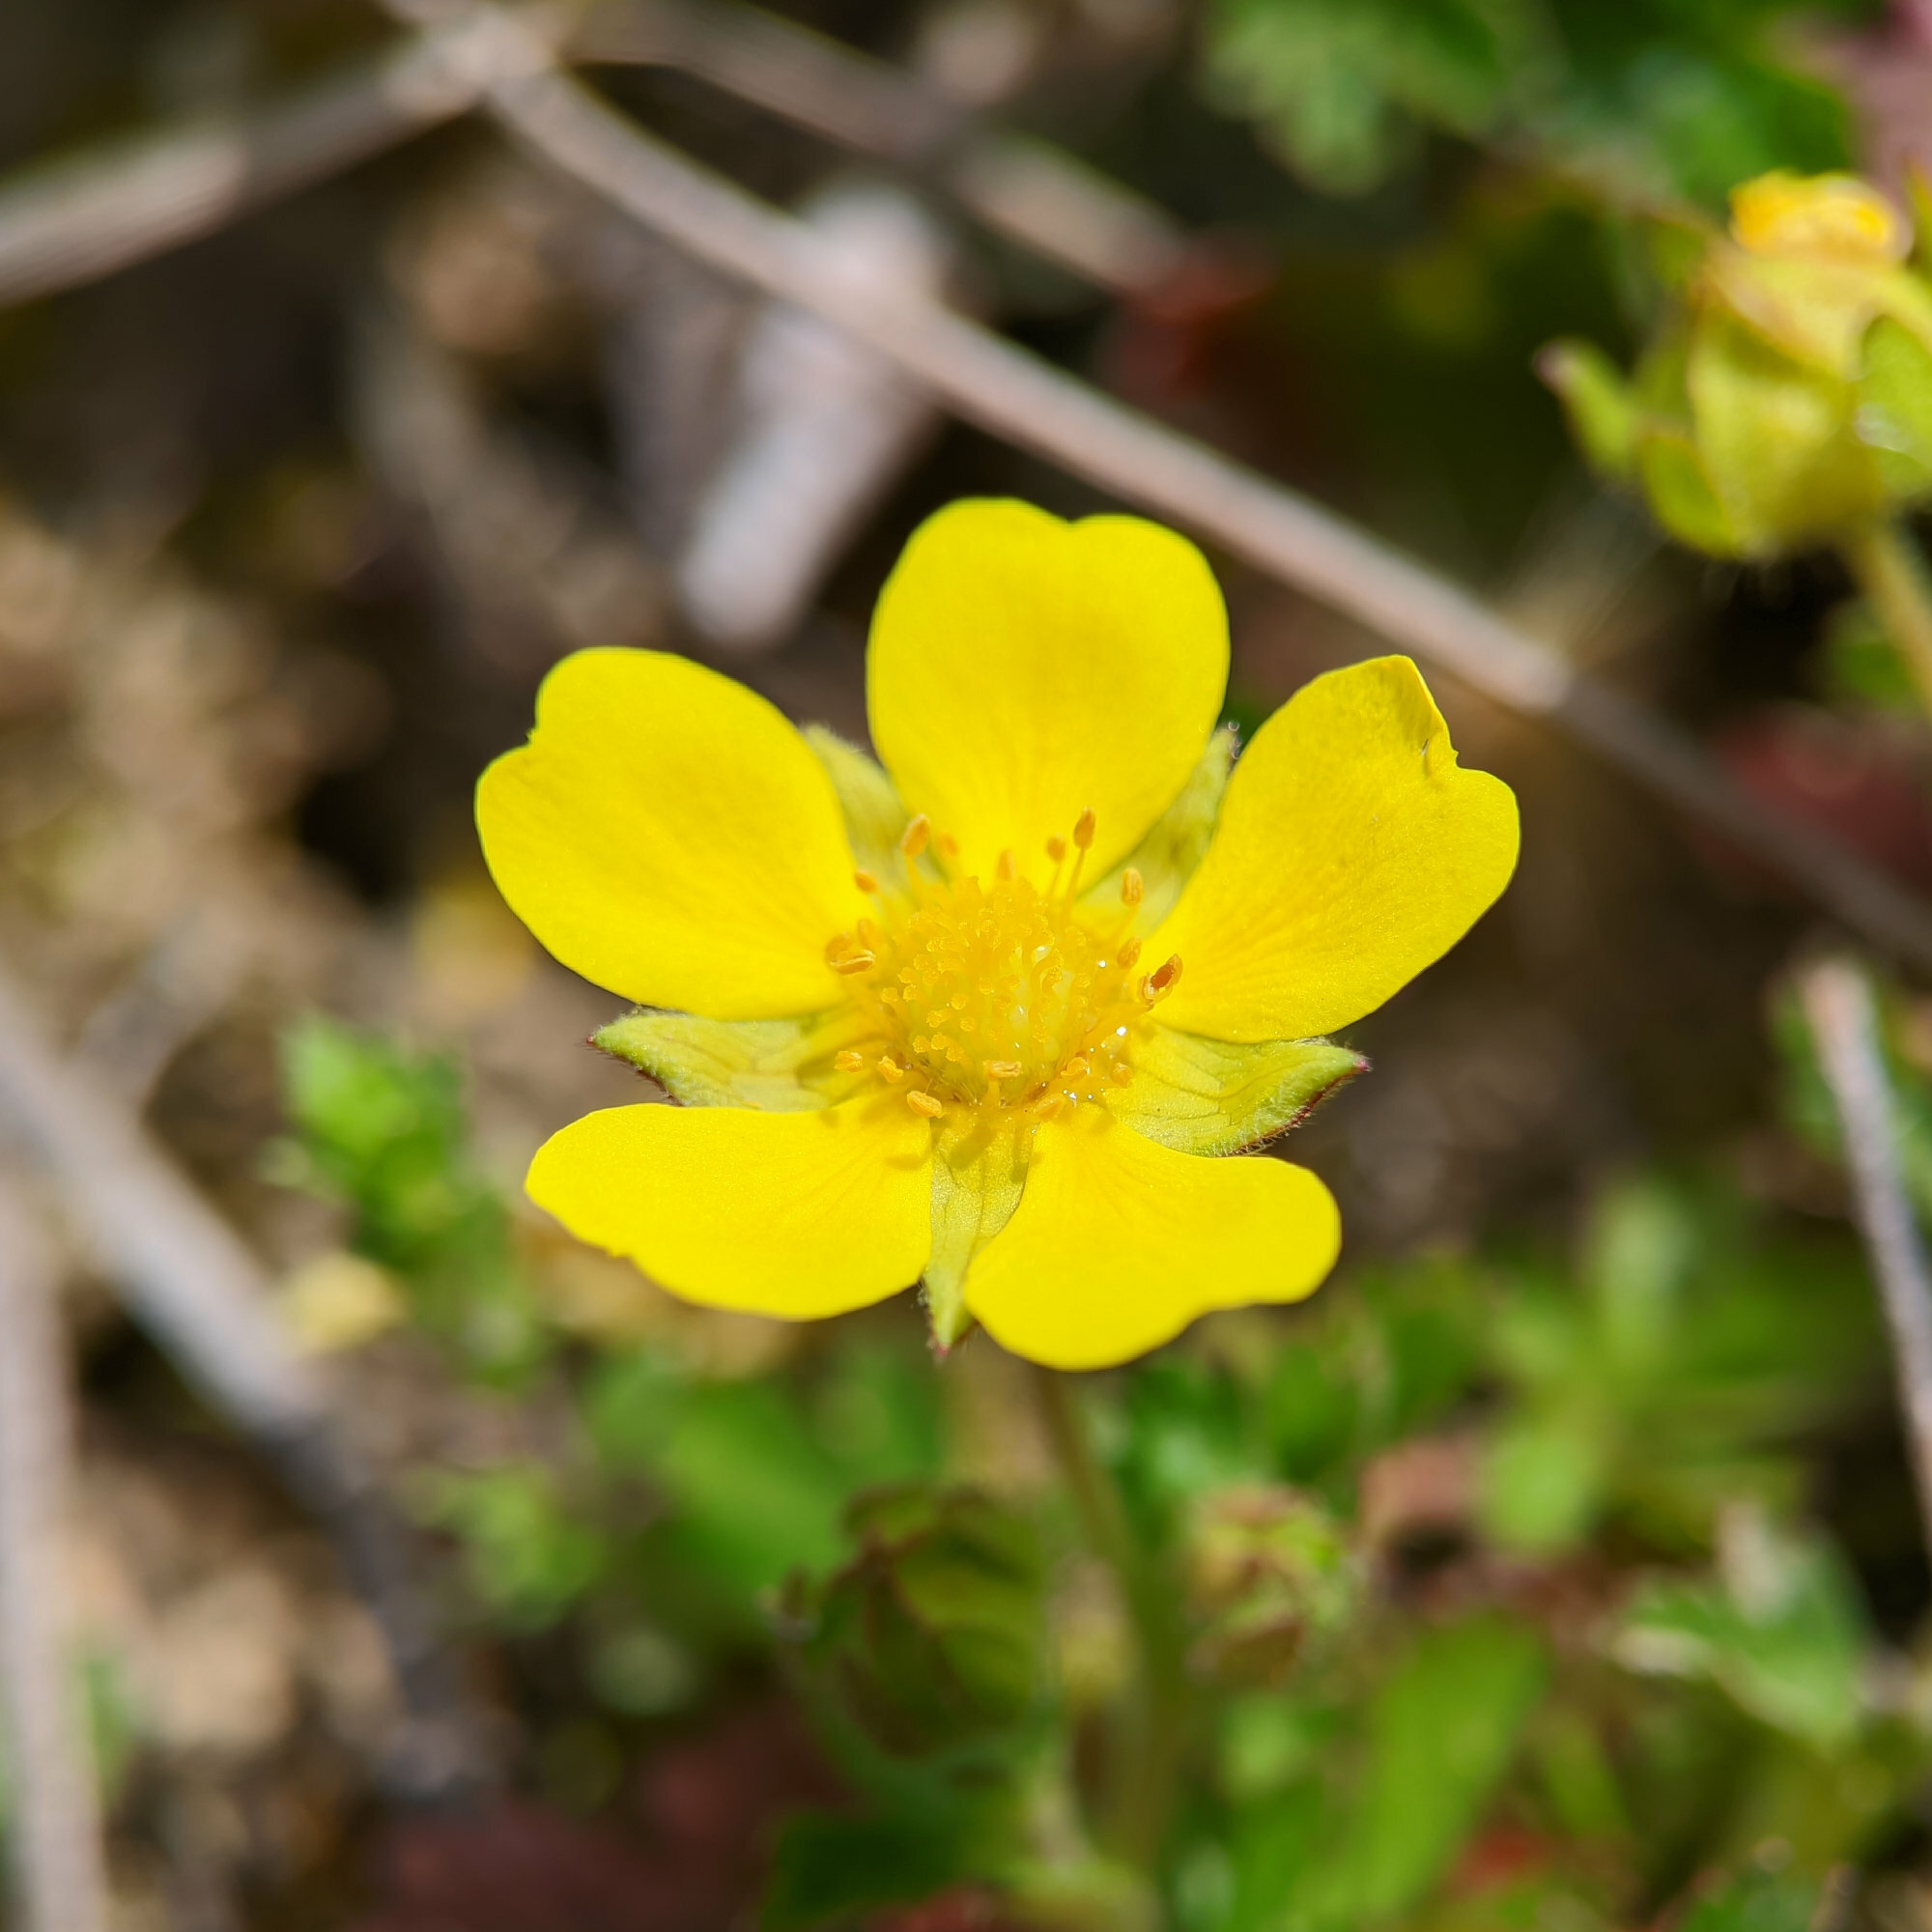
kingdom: Plantae
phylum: Tracheophyta
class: Magnoliopsida
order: Rosales
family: Rosaceae
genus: Potentilla
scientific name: Potentilla verna
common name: Spring cinquefoil
